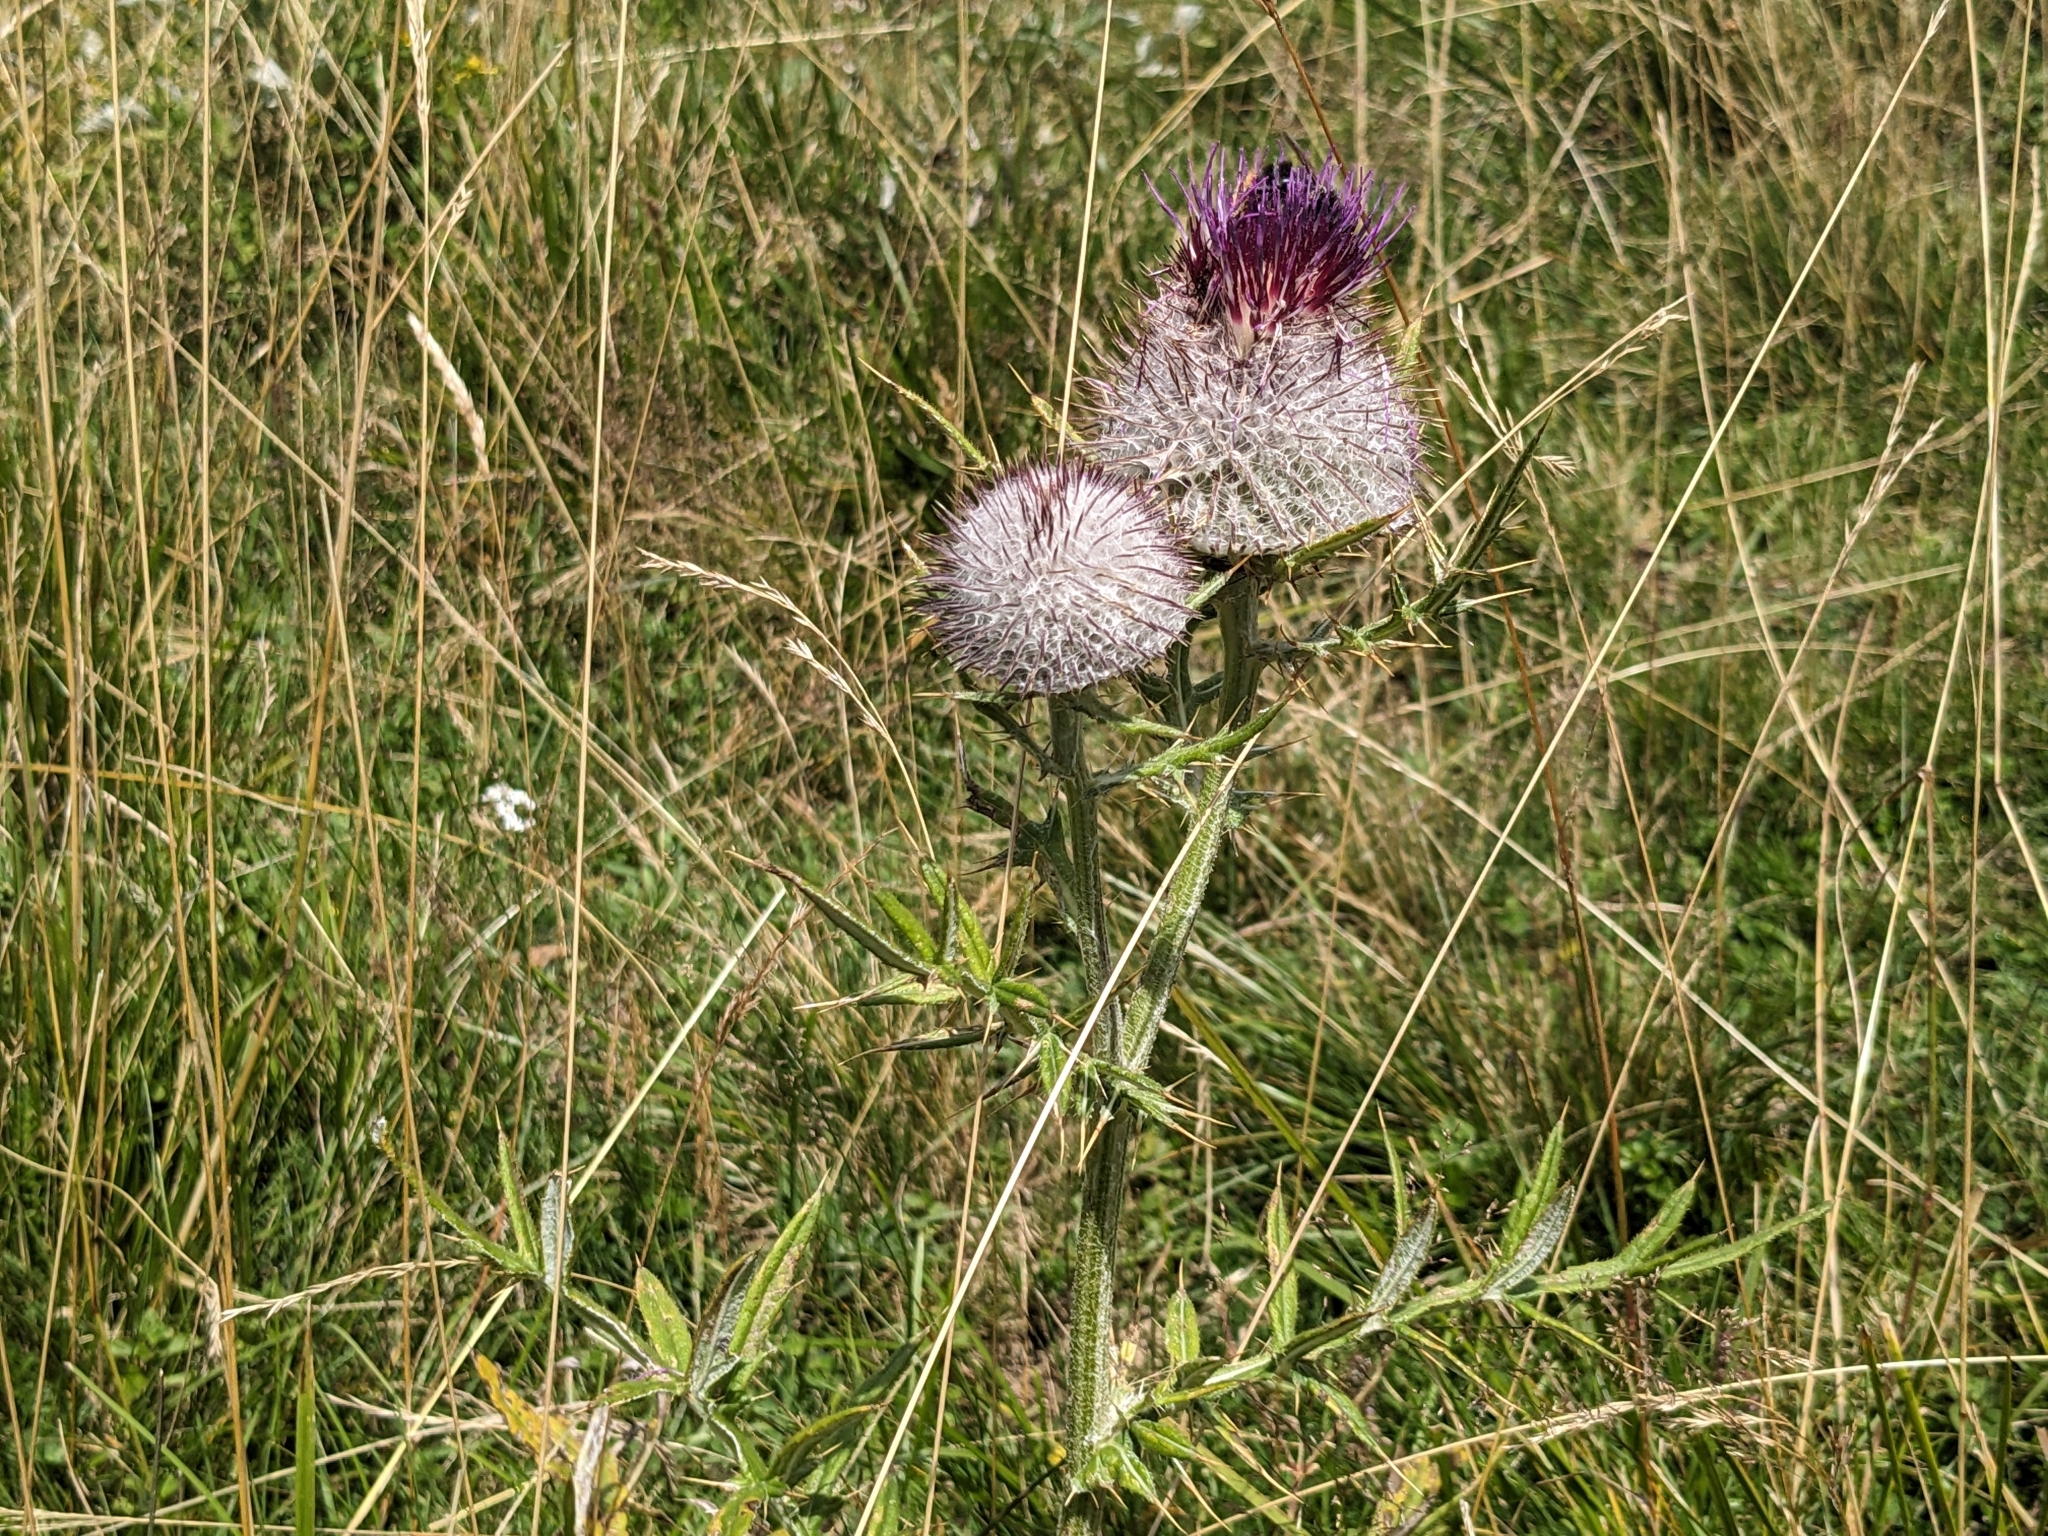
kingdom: Plantae
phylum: Tracheophyta
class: Magnoliopsida
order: Asterales
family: Asteraceae
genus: Lophiolepis
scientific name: Lophiolepis eriophora
